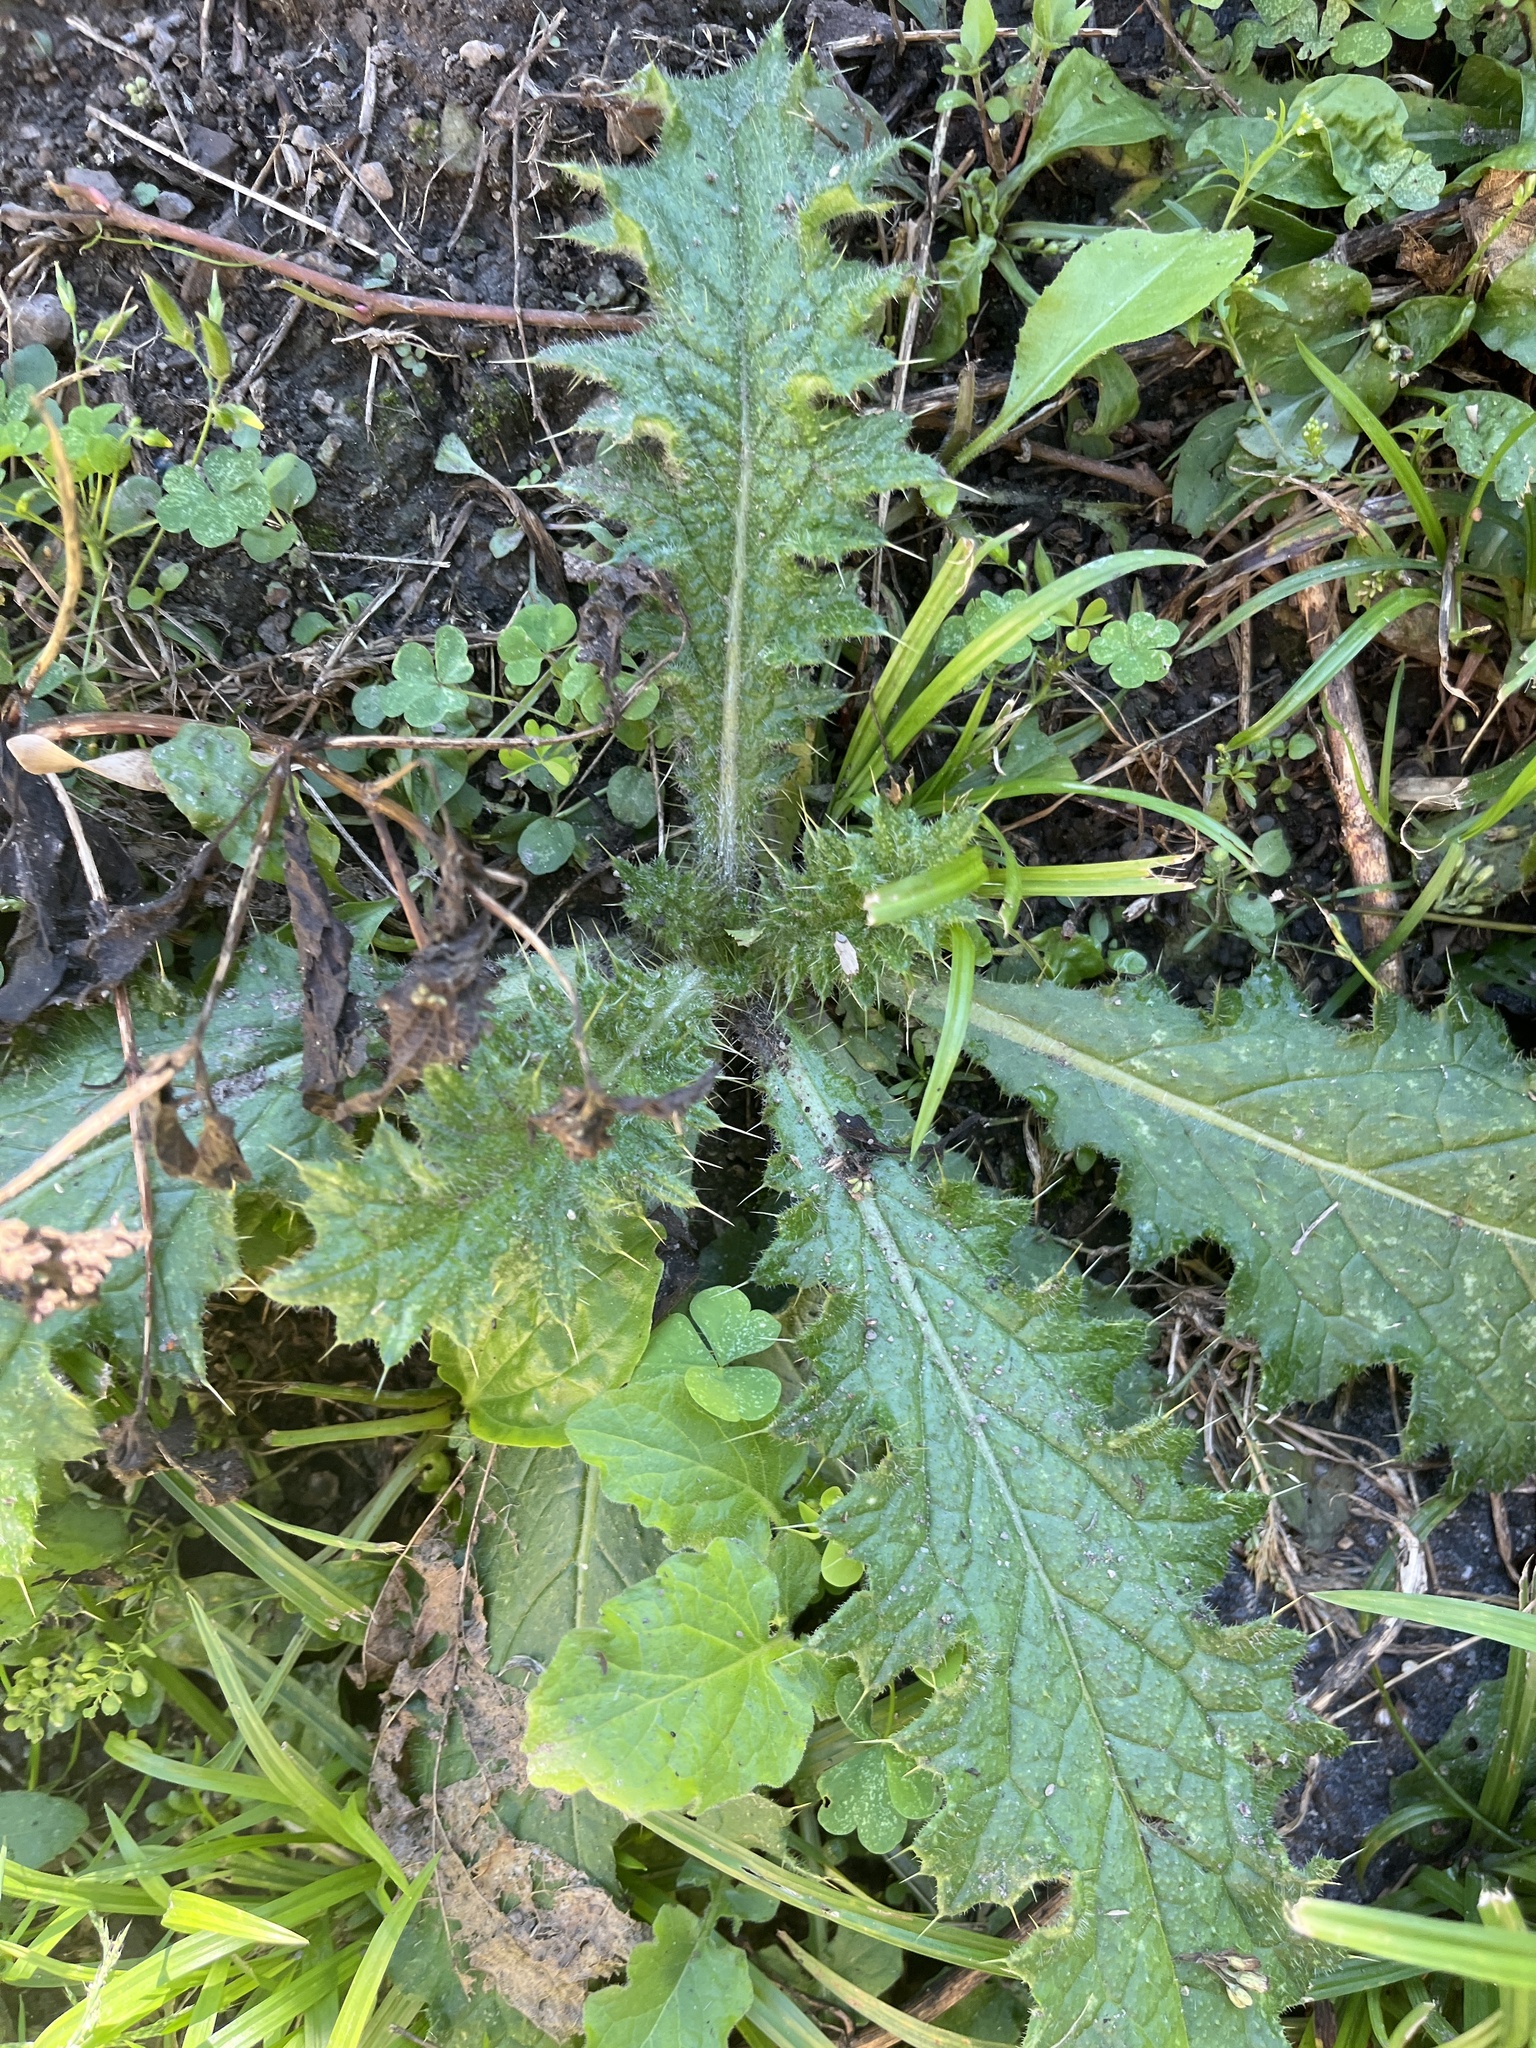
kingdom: Plantae
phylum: Tracheophyta
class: Magnoliopsida
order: Asterales
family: Asteraceae
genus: Cirsium
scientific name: Cirsium vulgare
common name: Bull thistle
